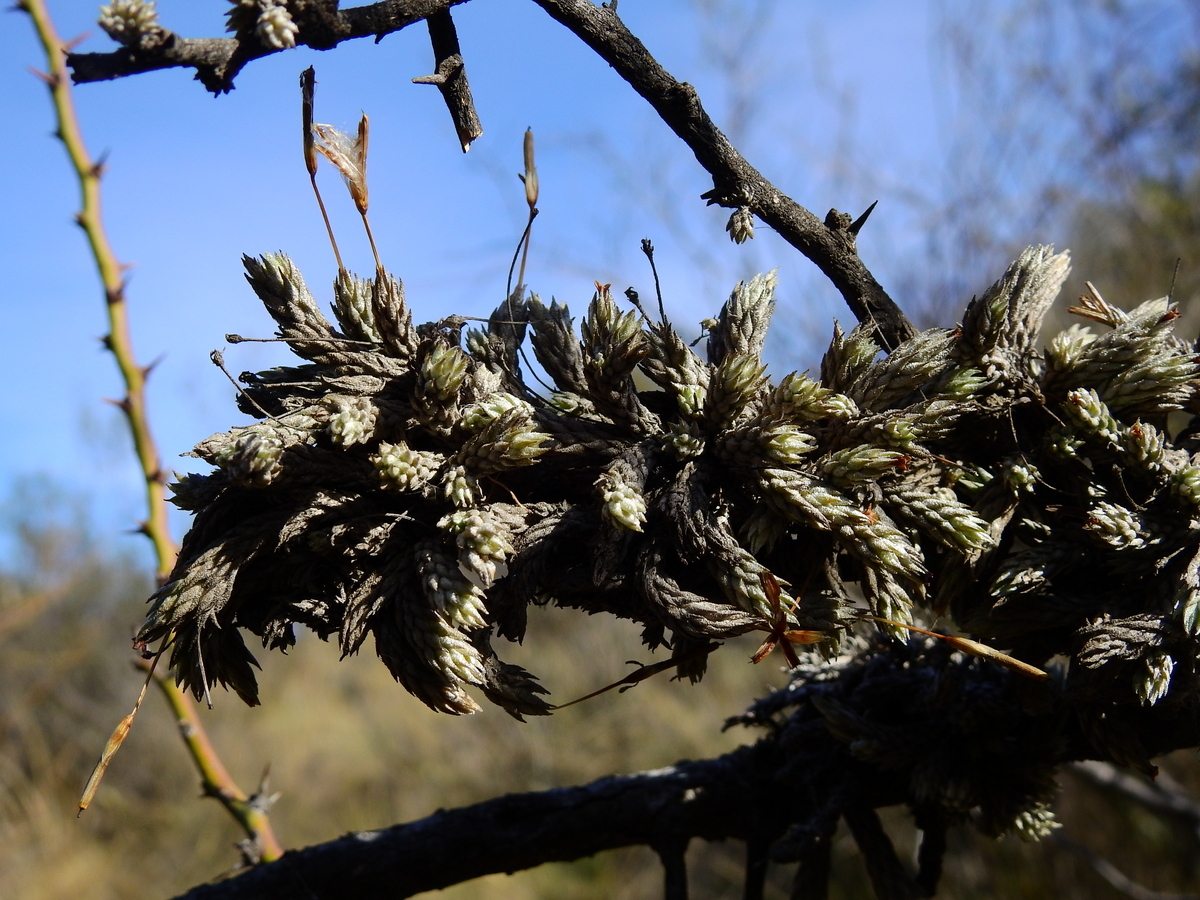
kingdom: Plantae
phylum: Tracheophyta
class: Liliopsida
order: Poales
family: Bromeliaceae
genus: Tillandsia
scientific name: Tillandsia pedicellata
